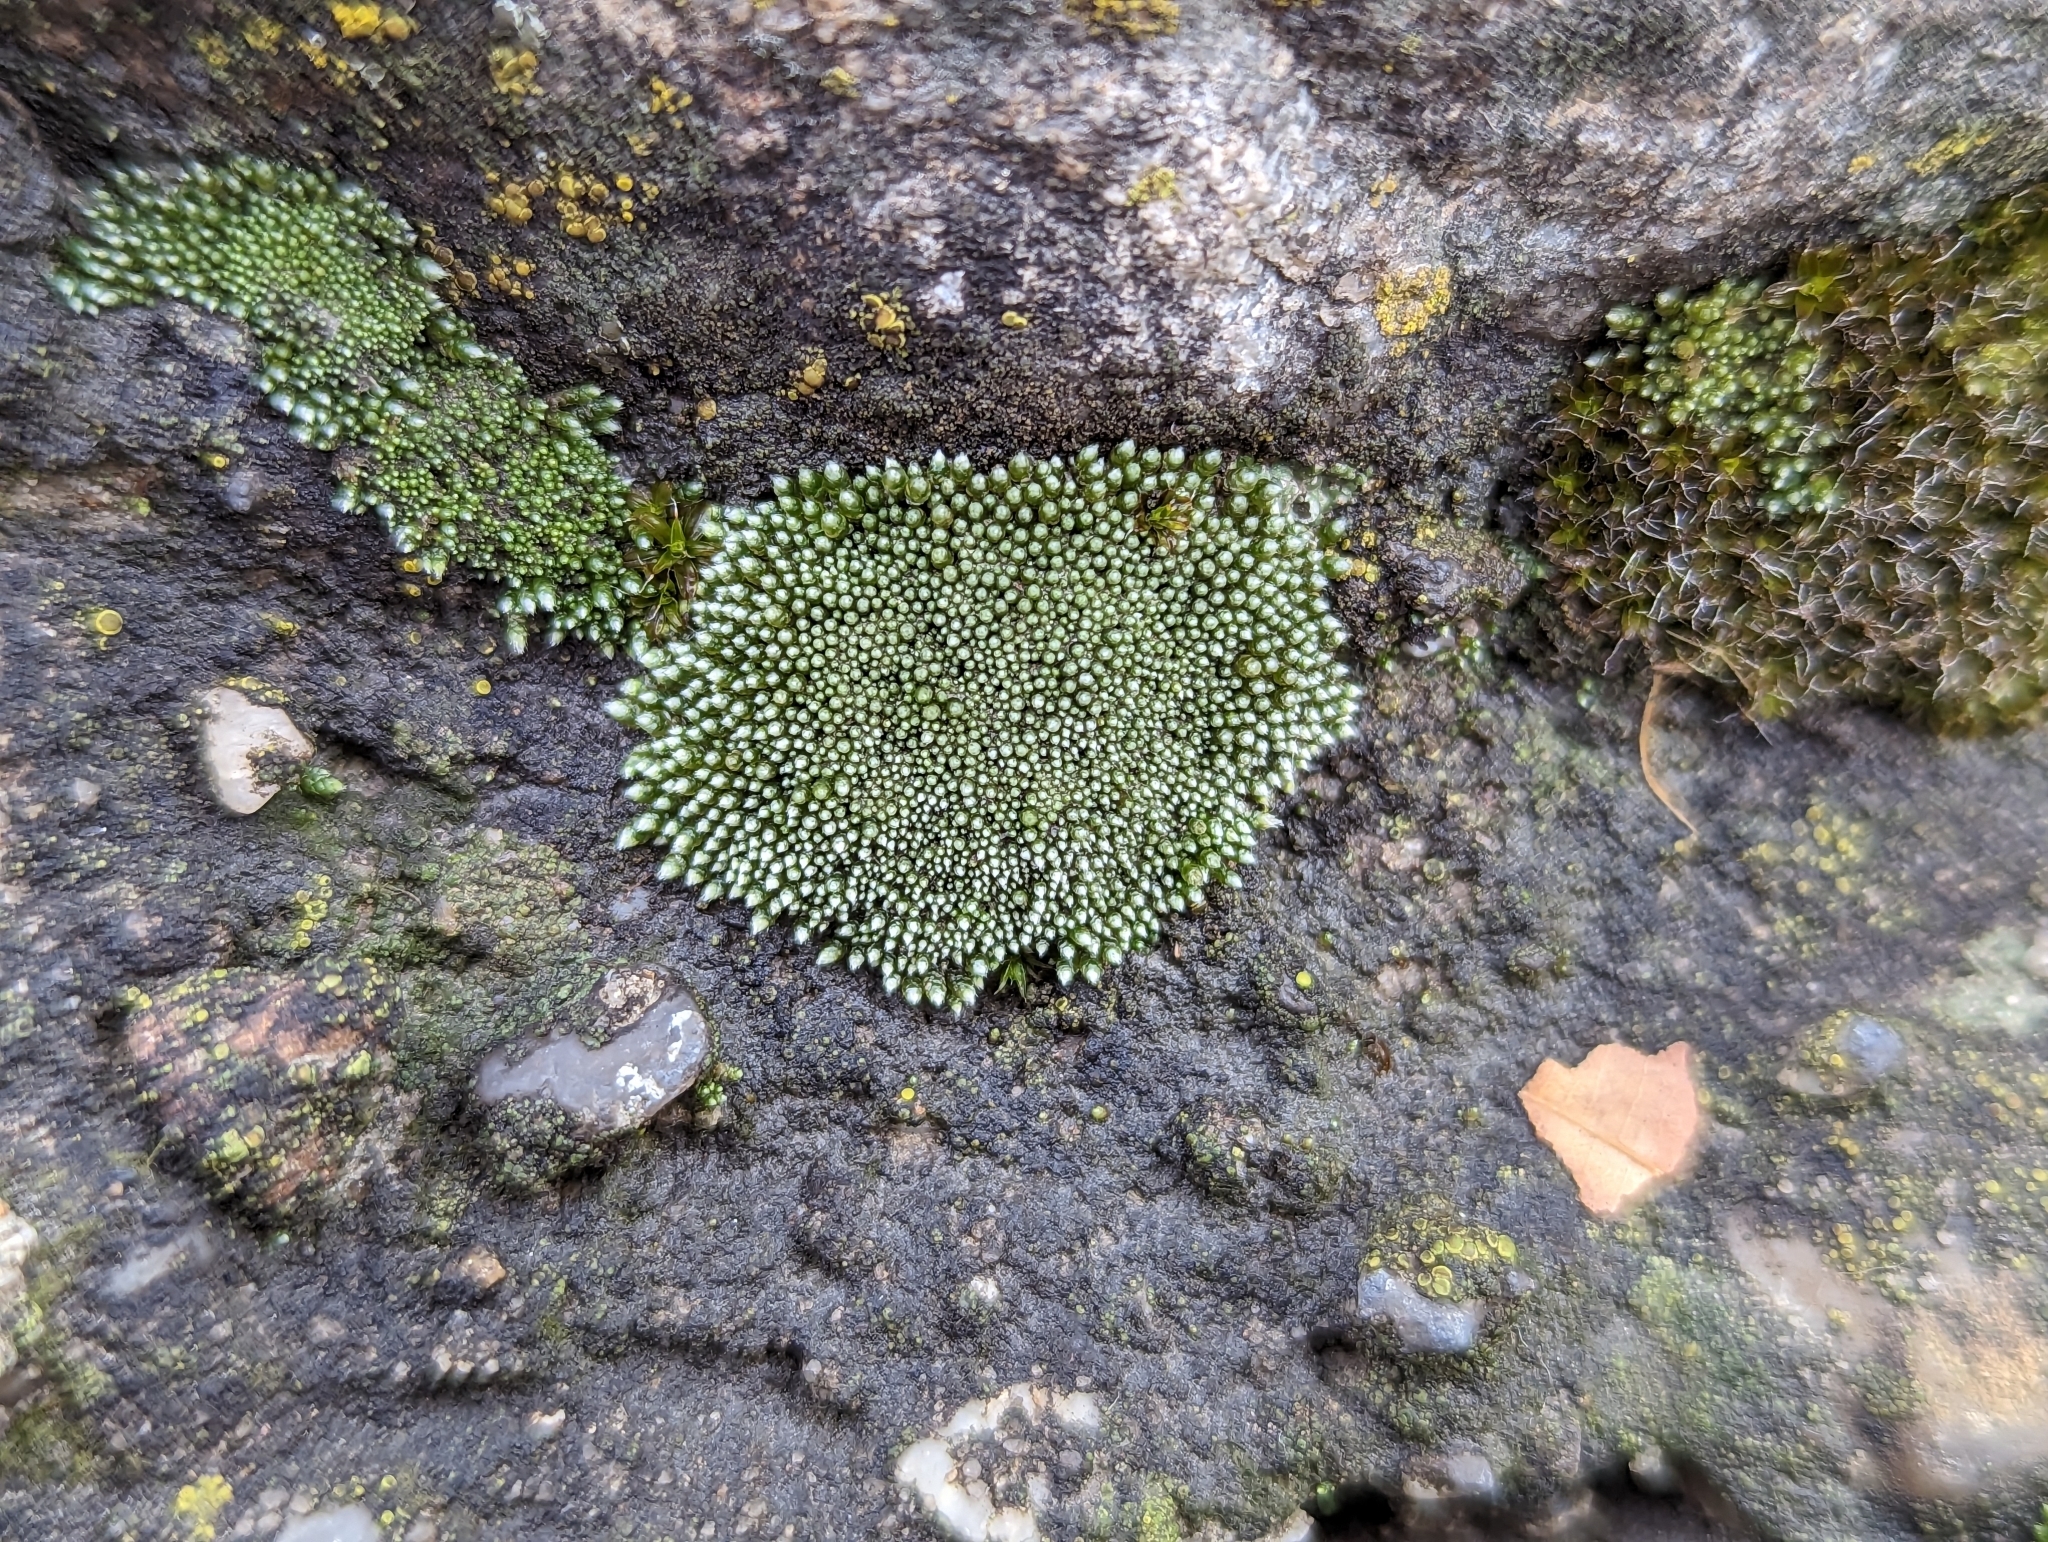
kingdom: Plantae
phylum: Bryophyta
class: Bryopsida
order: Bryales
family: Bryaceae
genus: Bryum
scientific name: Bryum argenteum
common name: Silver-moss
